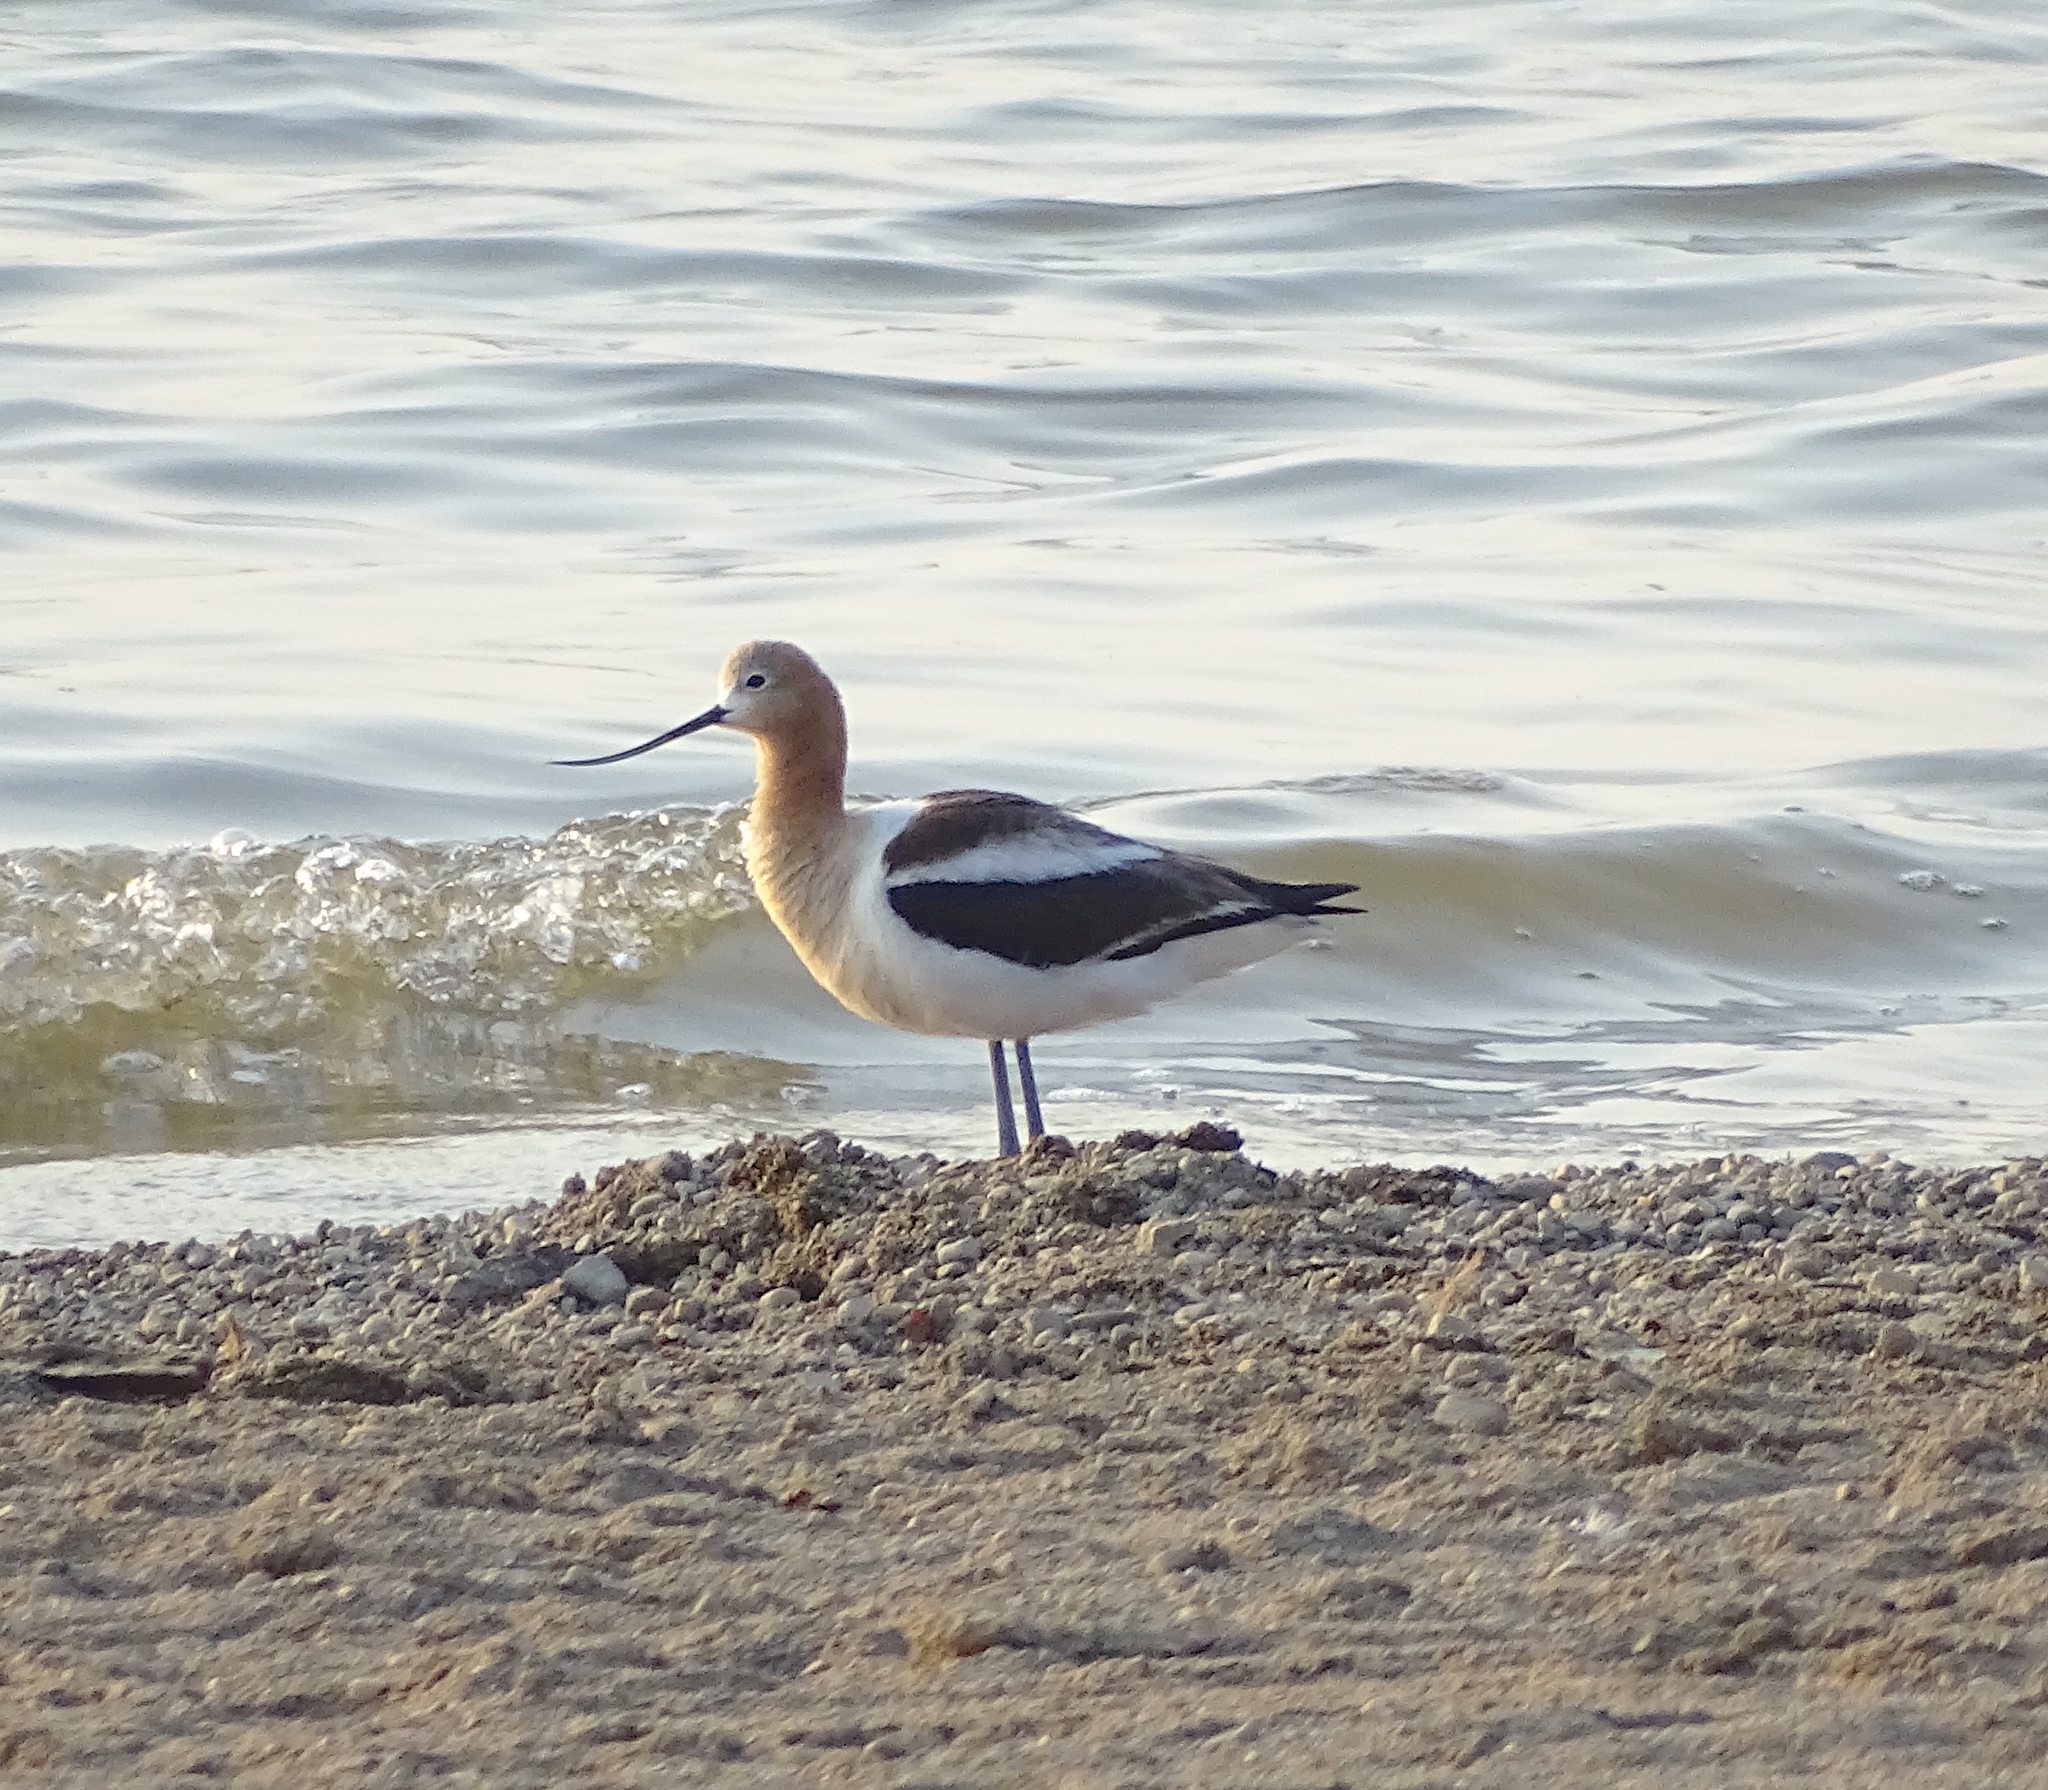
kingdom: Animalia
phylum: Chordata
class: Aves
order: Charadriiformes
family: Recurvirostridae
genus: Recurvirostra
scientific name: Recurvirostra americana
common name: American avocet
